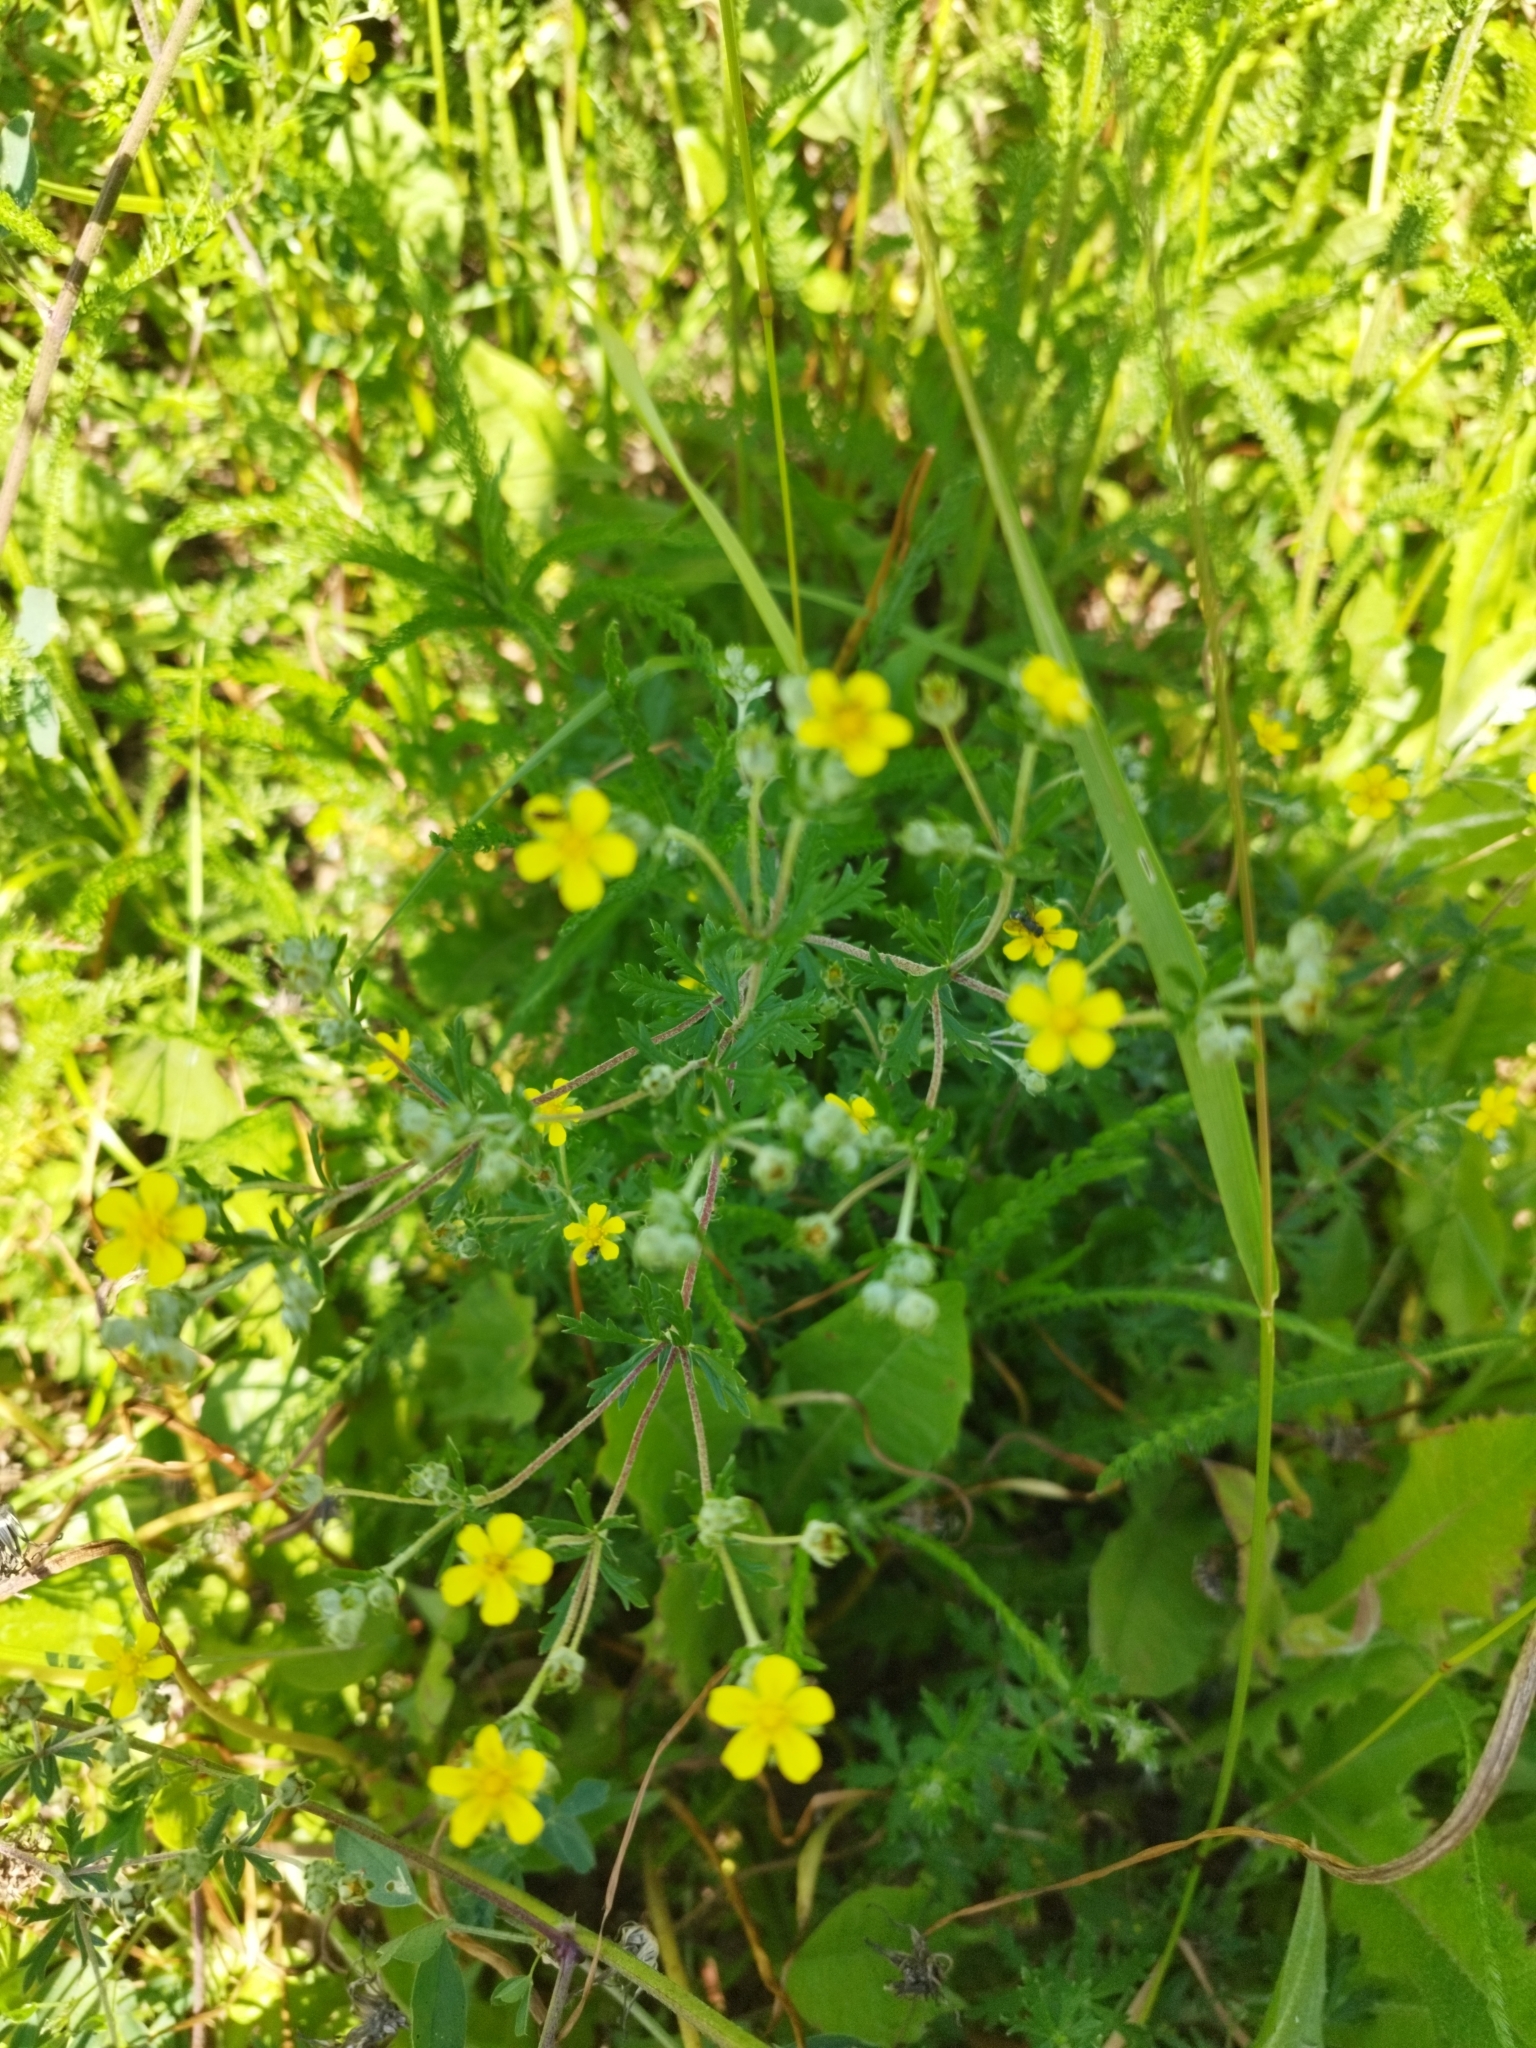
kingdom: Plantae
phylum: Tracheophyta
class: Magnoliopsida
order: Rosales
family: Rosaceae
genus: Potentilla
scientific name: Potentilla argentea
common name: Hoary cinquefoil
